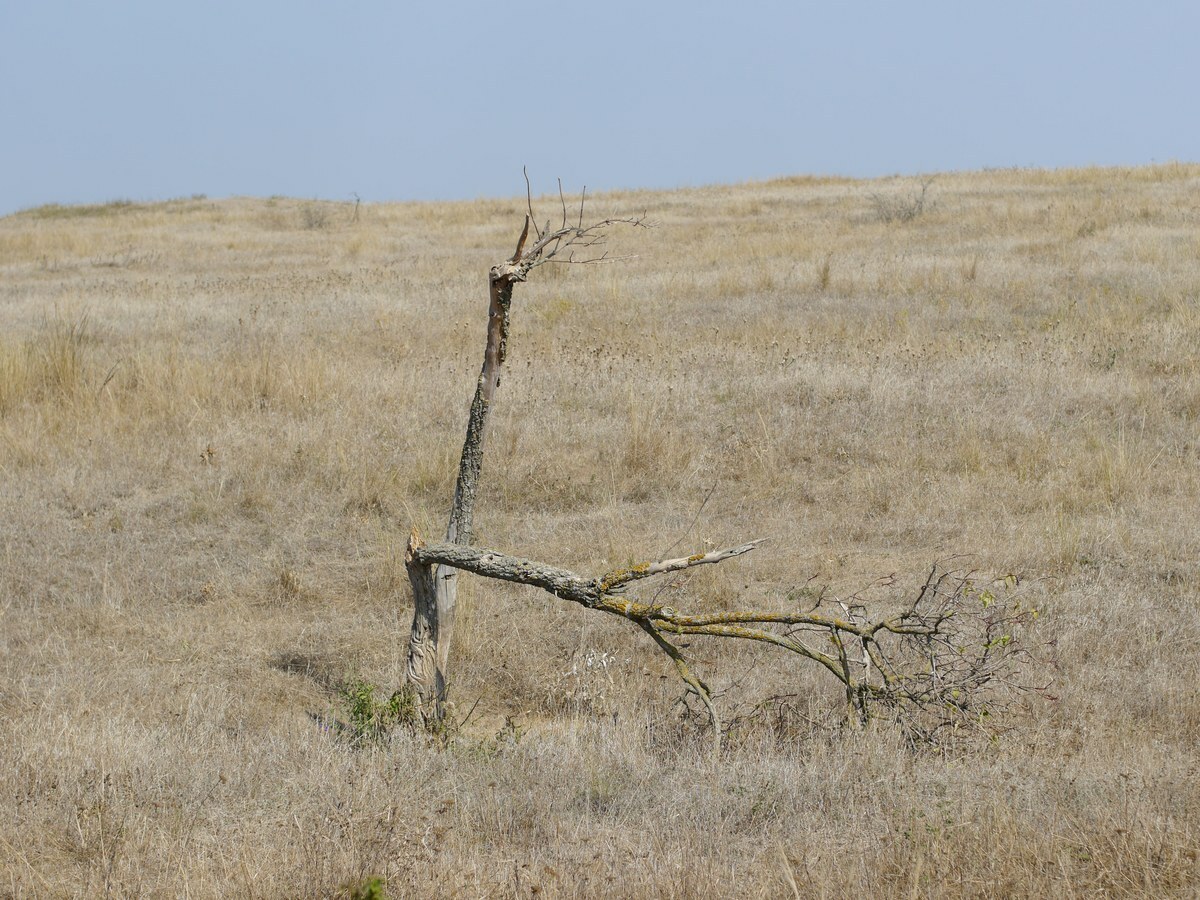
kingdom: Plantae
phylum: Tracheophyta
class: Magnoliopsida
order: Dipsacales
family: Viburnaceae
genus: Sambucus
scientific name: Sambucus nigra
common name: Elder
